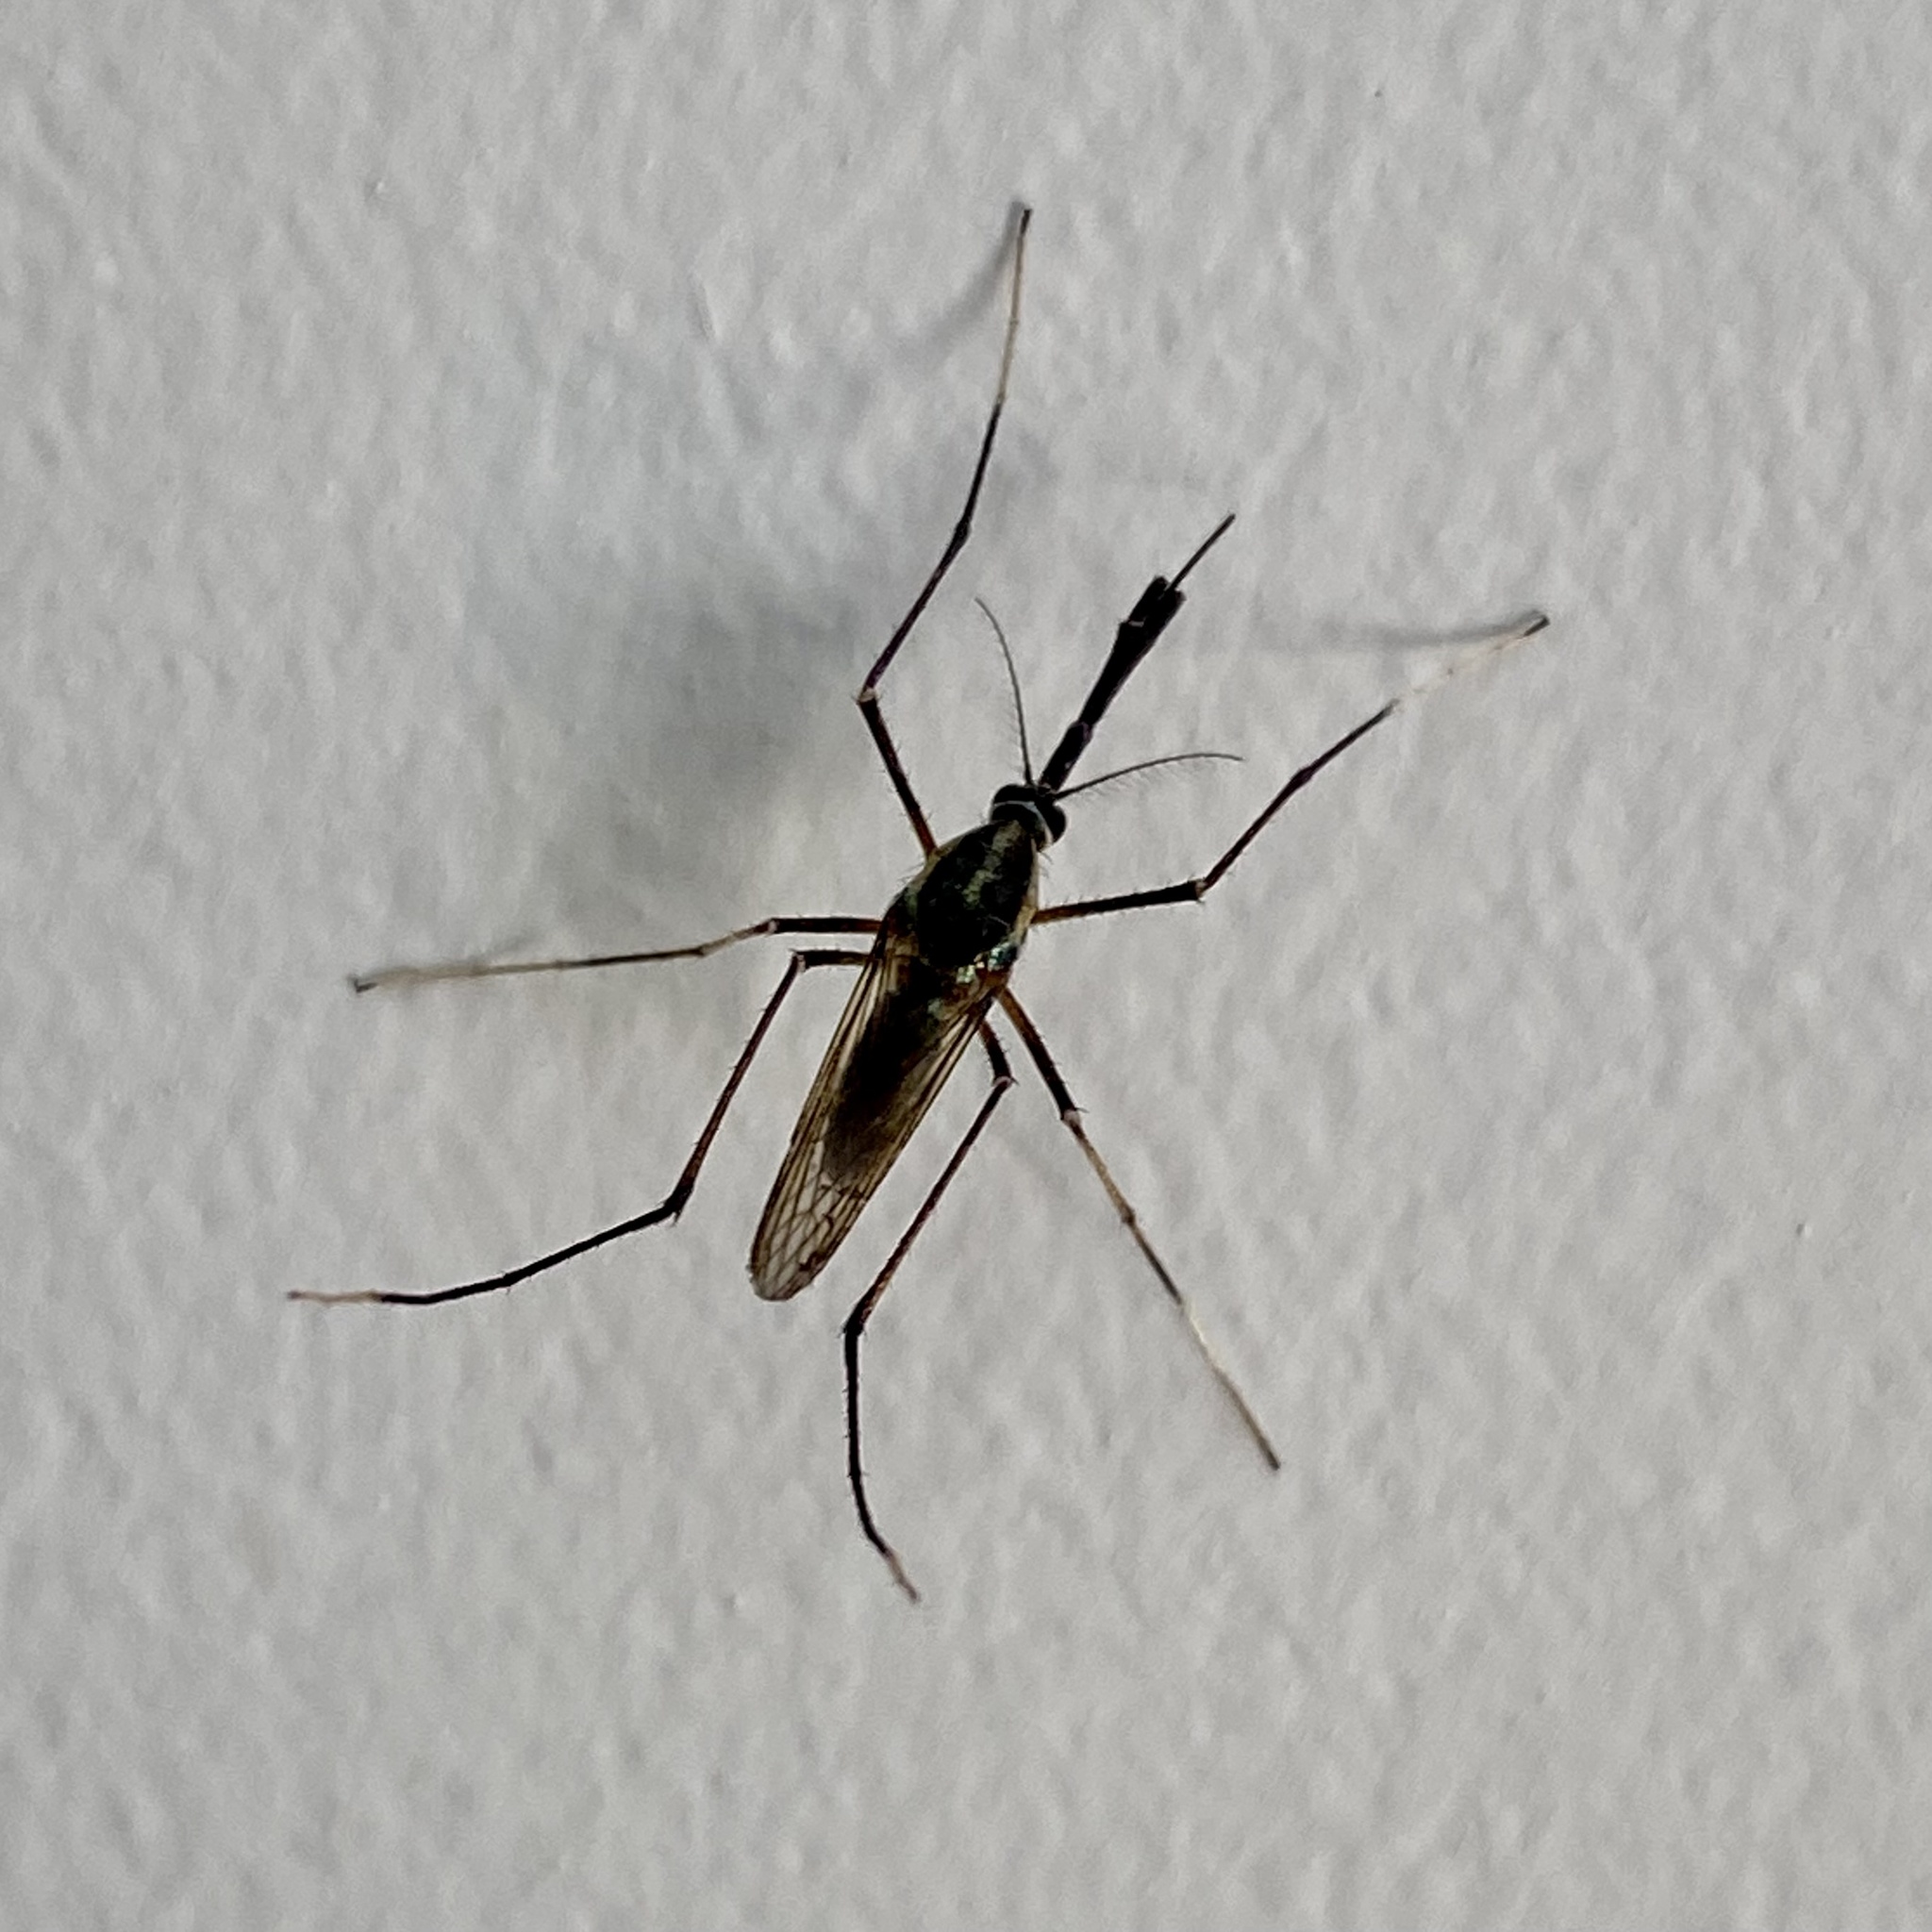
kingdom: Animalia
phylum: Arthropoda
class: Insecta
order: Diptera
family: Culicidae
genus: Toxorhynchites
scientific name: Toxorhynchites rutilus
